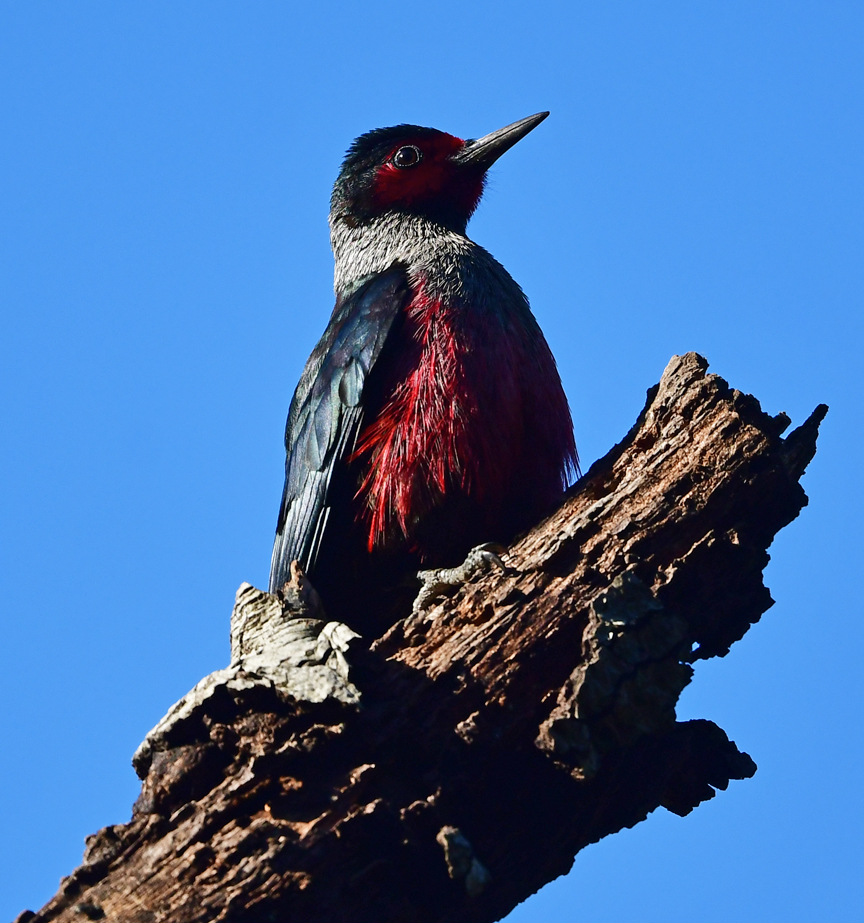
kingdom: Animalia
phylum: Chordata
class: Aves
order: Piciformes
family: Picidae
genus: Melanerpes
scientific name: Melanerpes lewis
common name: Lewis's woodpecker
